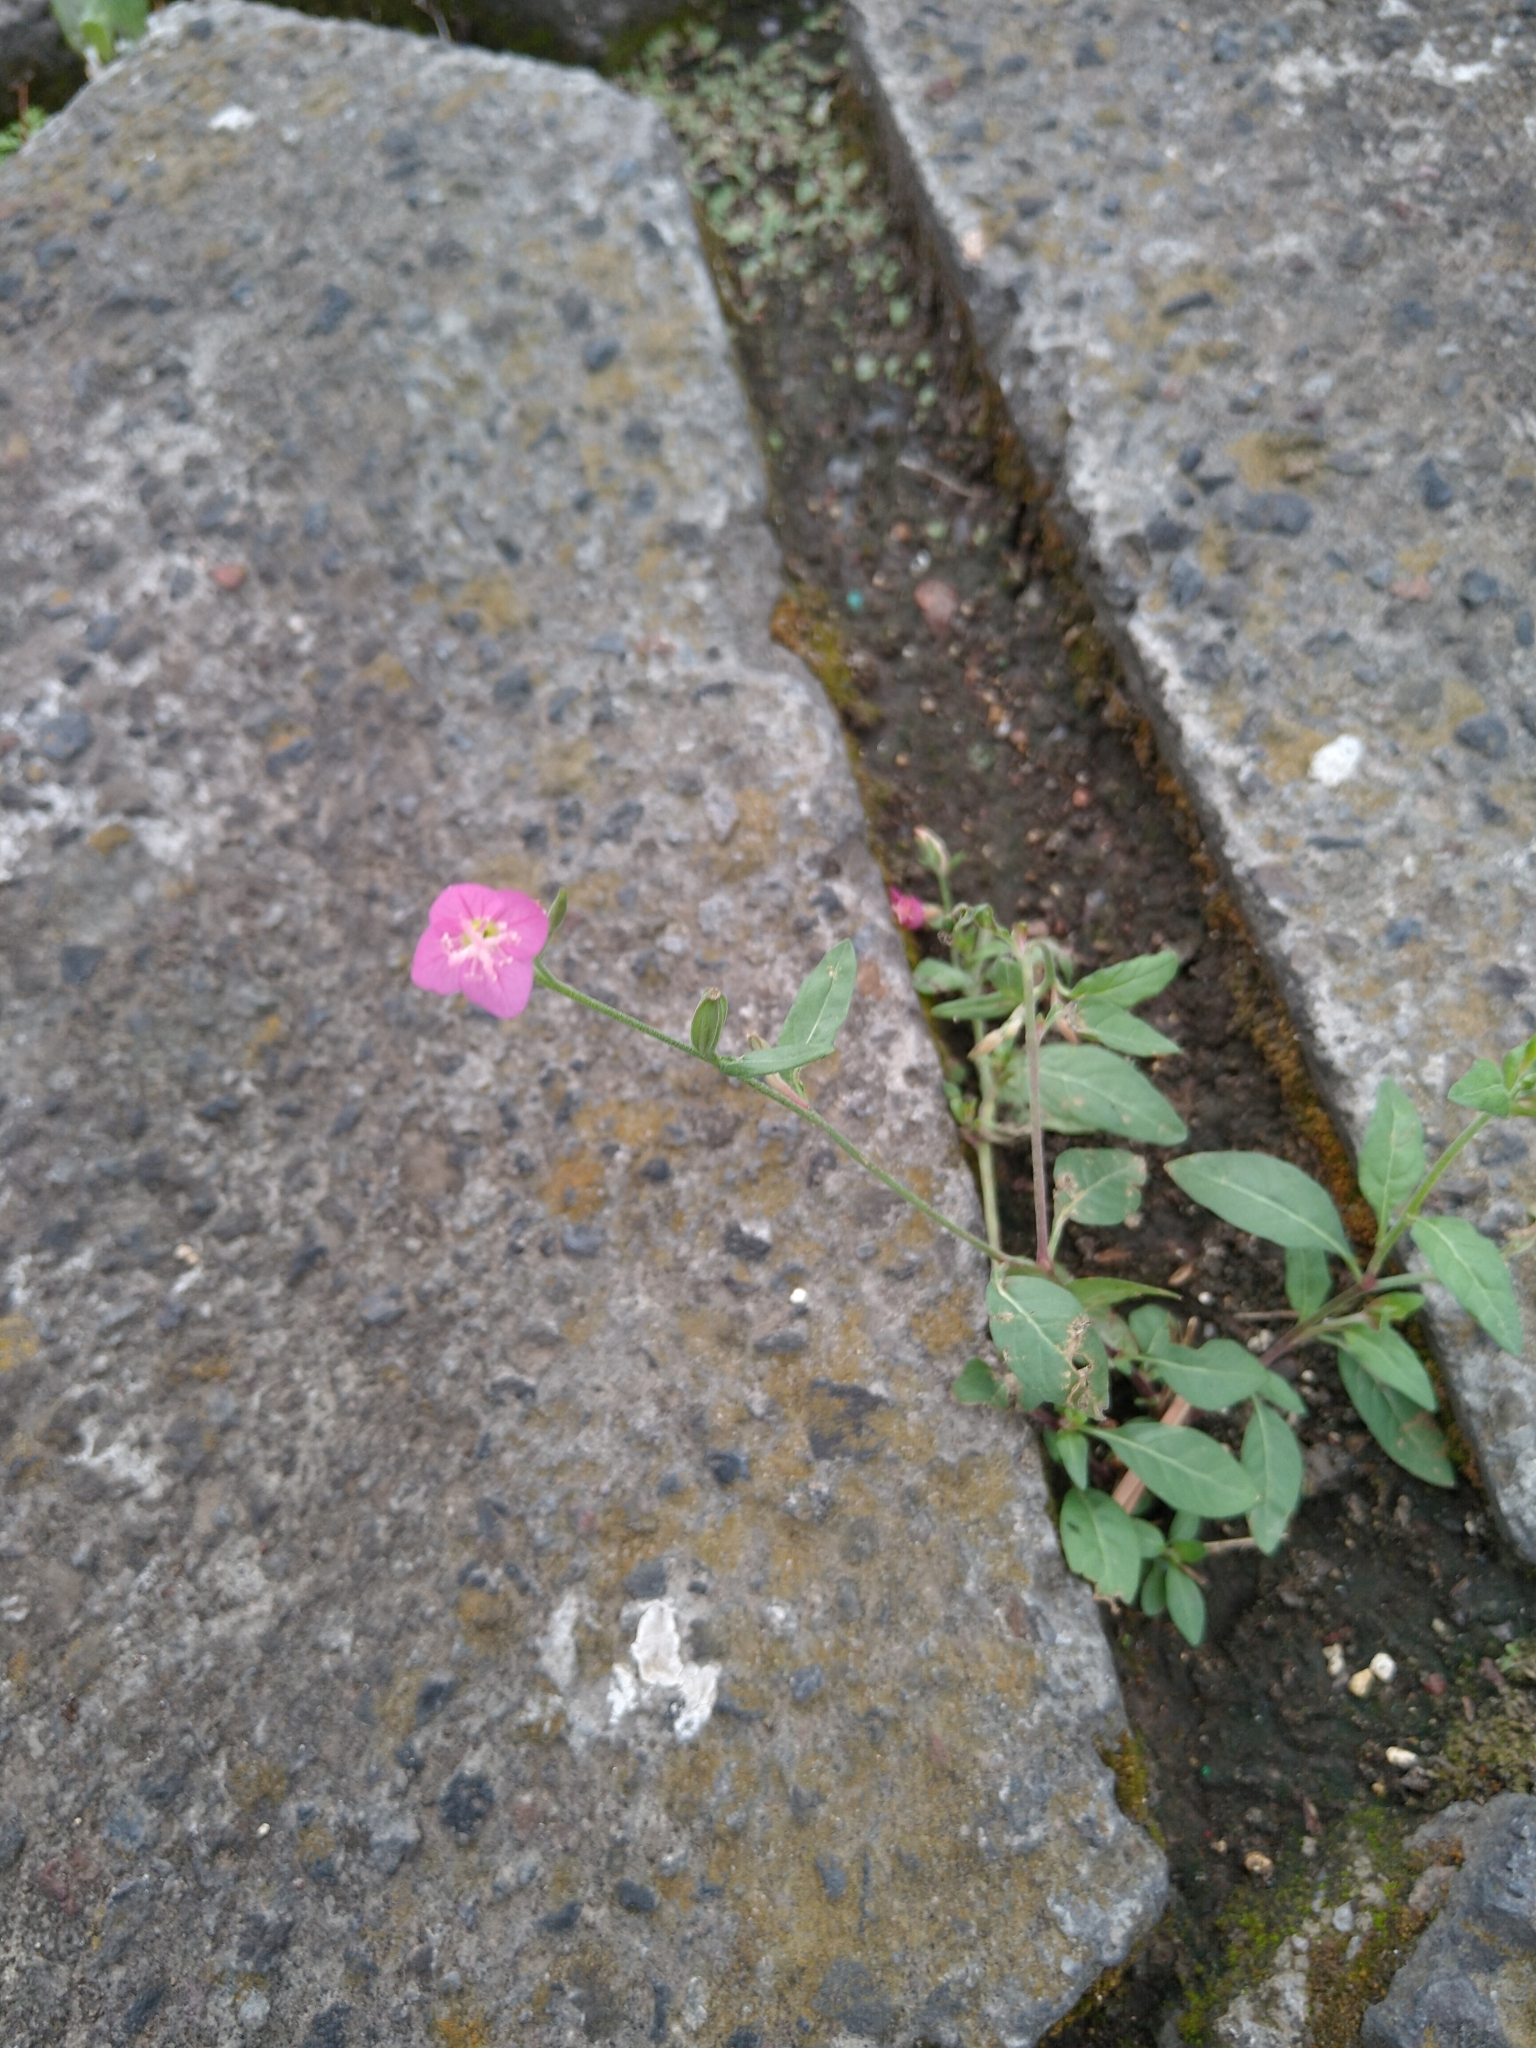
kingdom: Plantae
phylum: Tracheophyta
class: Magnoliopsida
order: Myrtales
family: Onagraceae
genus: Oenothera
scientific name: Oenothera rosea
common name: Rosy evening-primrose
